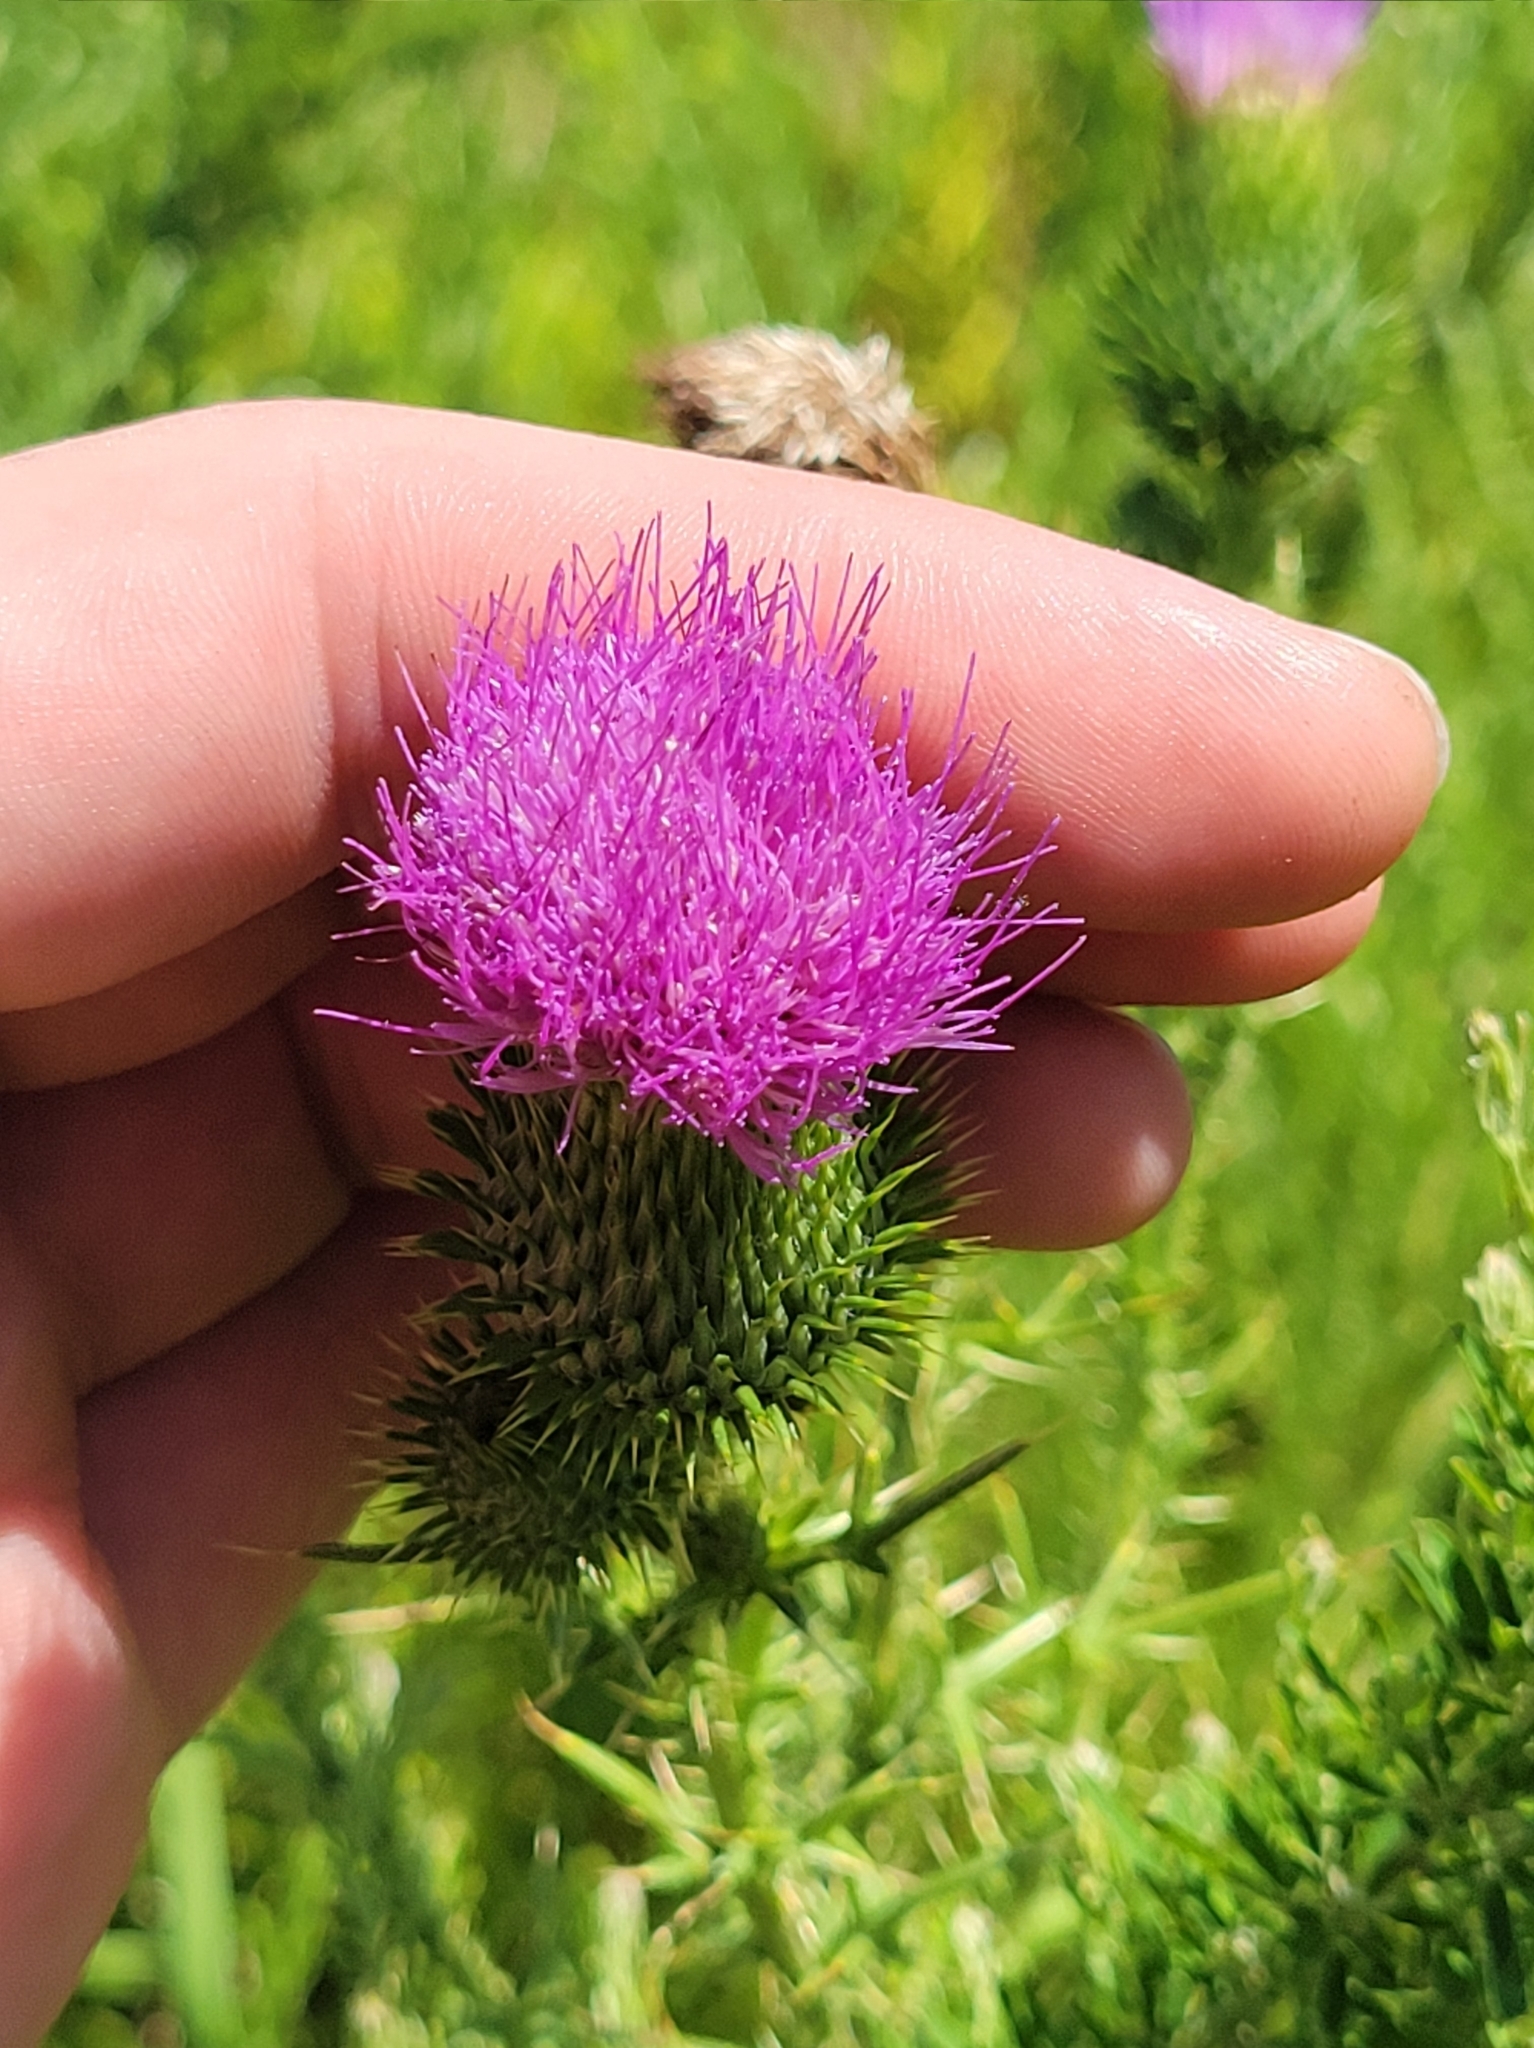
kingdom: Plantae
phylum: Tracheophyta
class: Magnoliopsida
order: Asterales
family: Asteraceae
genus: Cirsium
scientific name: Cirsium vulgare
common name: Bull thistle
